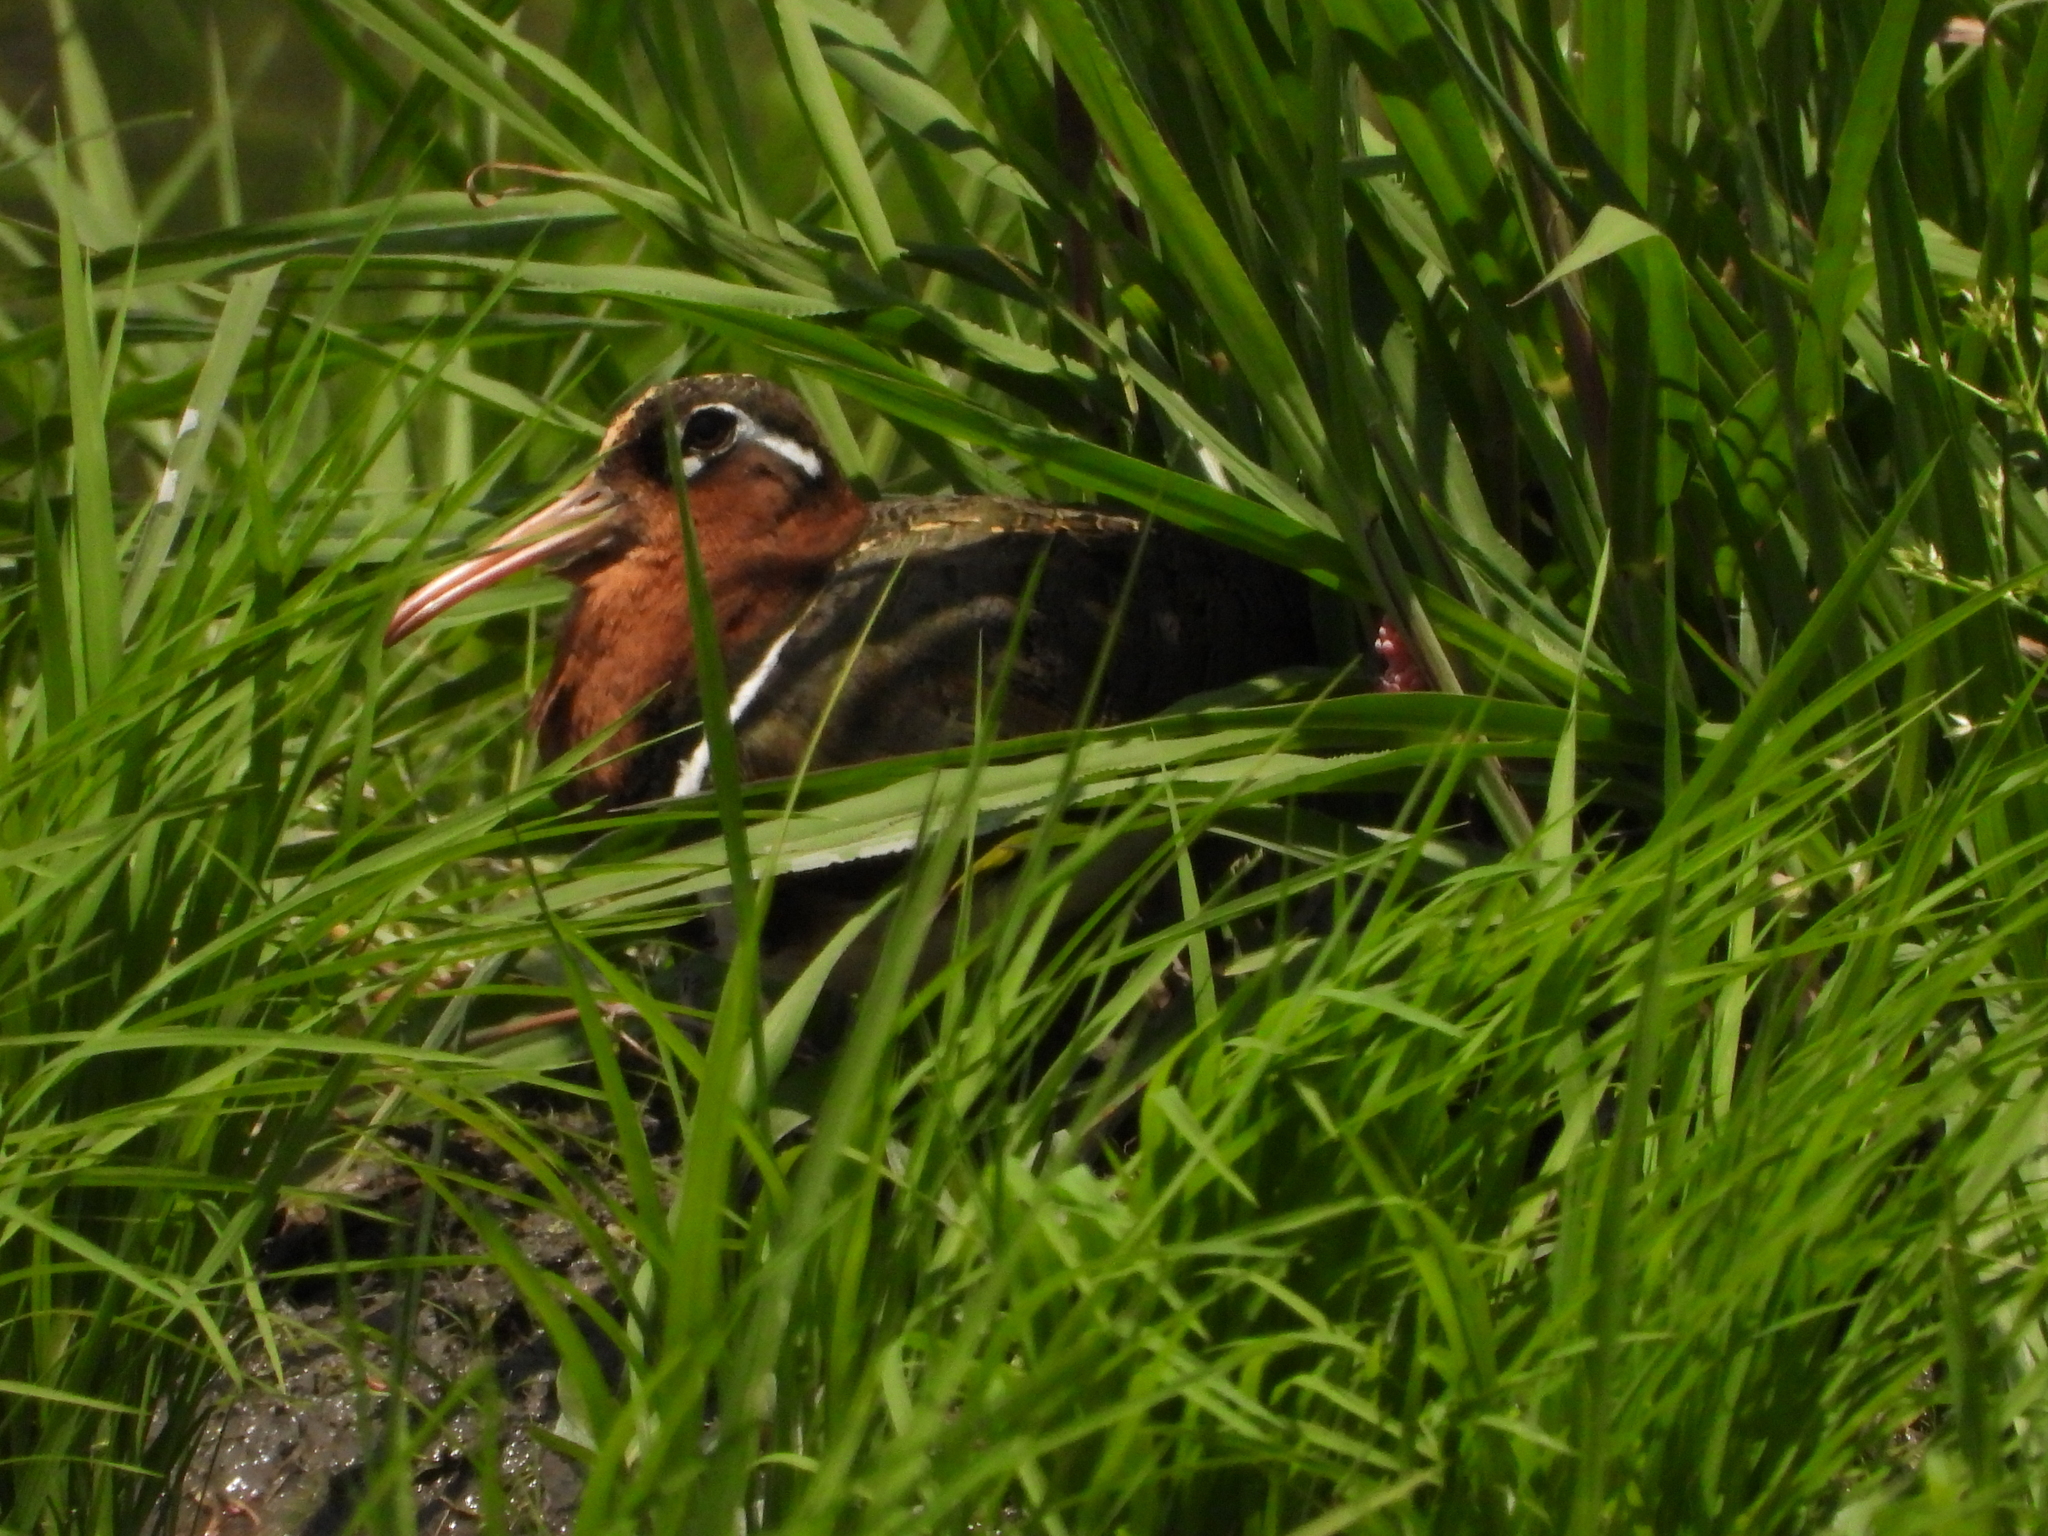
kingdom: Animalia
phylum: Chordata
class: Aves
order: Charadriiformes
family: Rostratulidae
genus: Rostratula
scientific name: Rostratula benghalensis
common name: Greater painted-snipe
